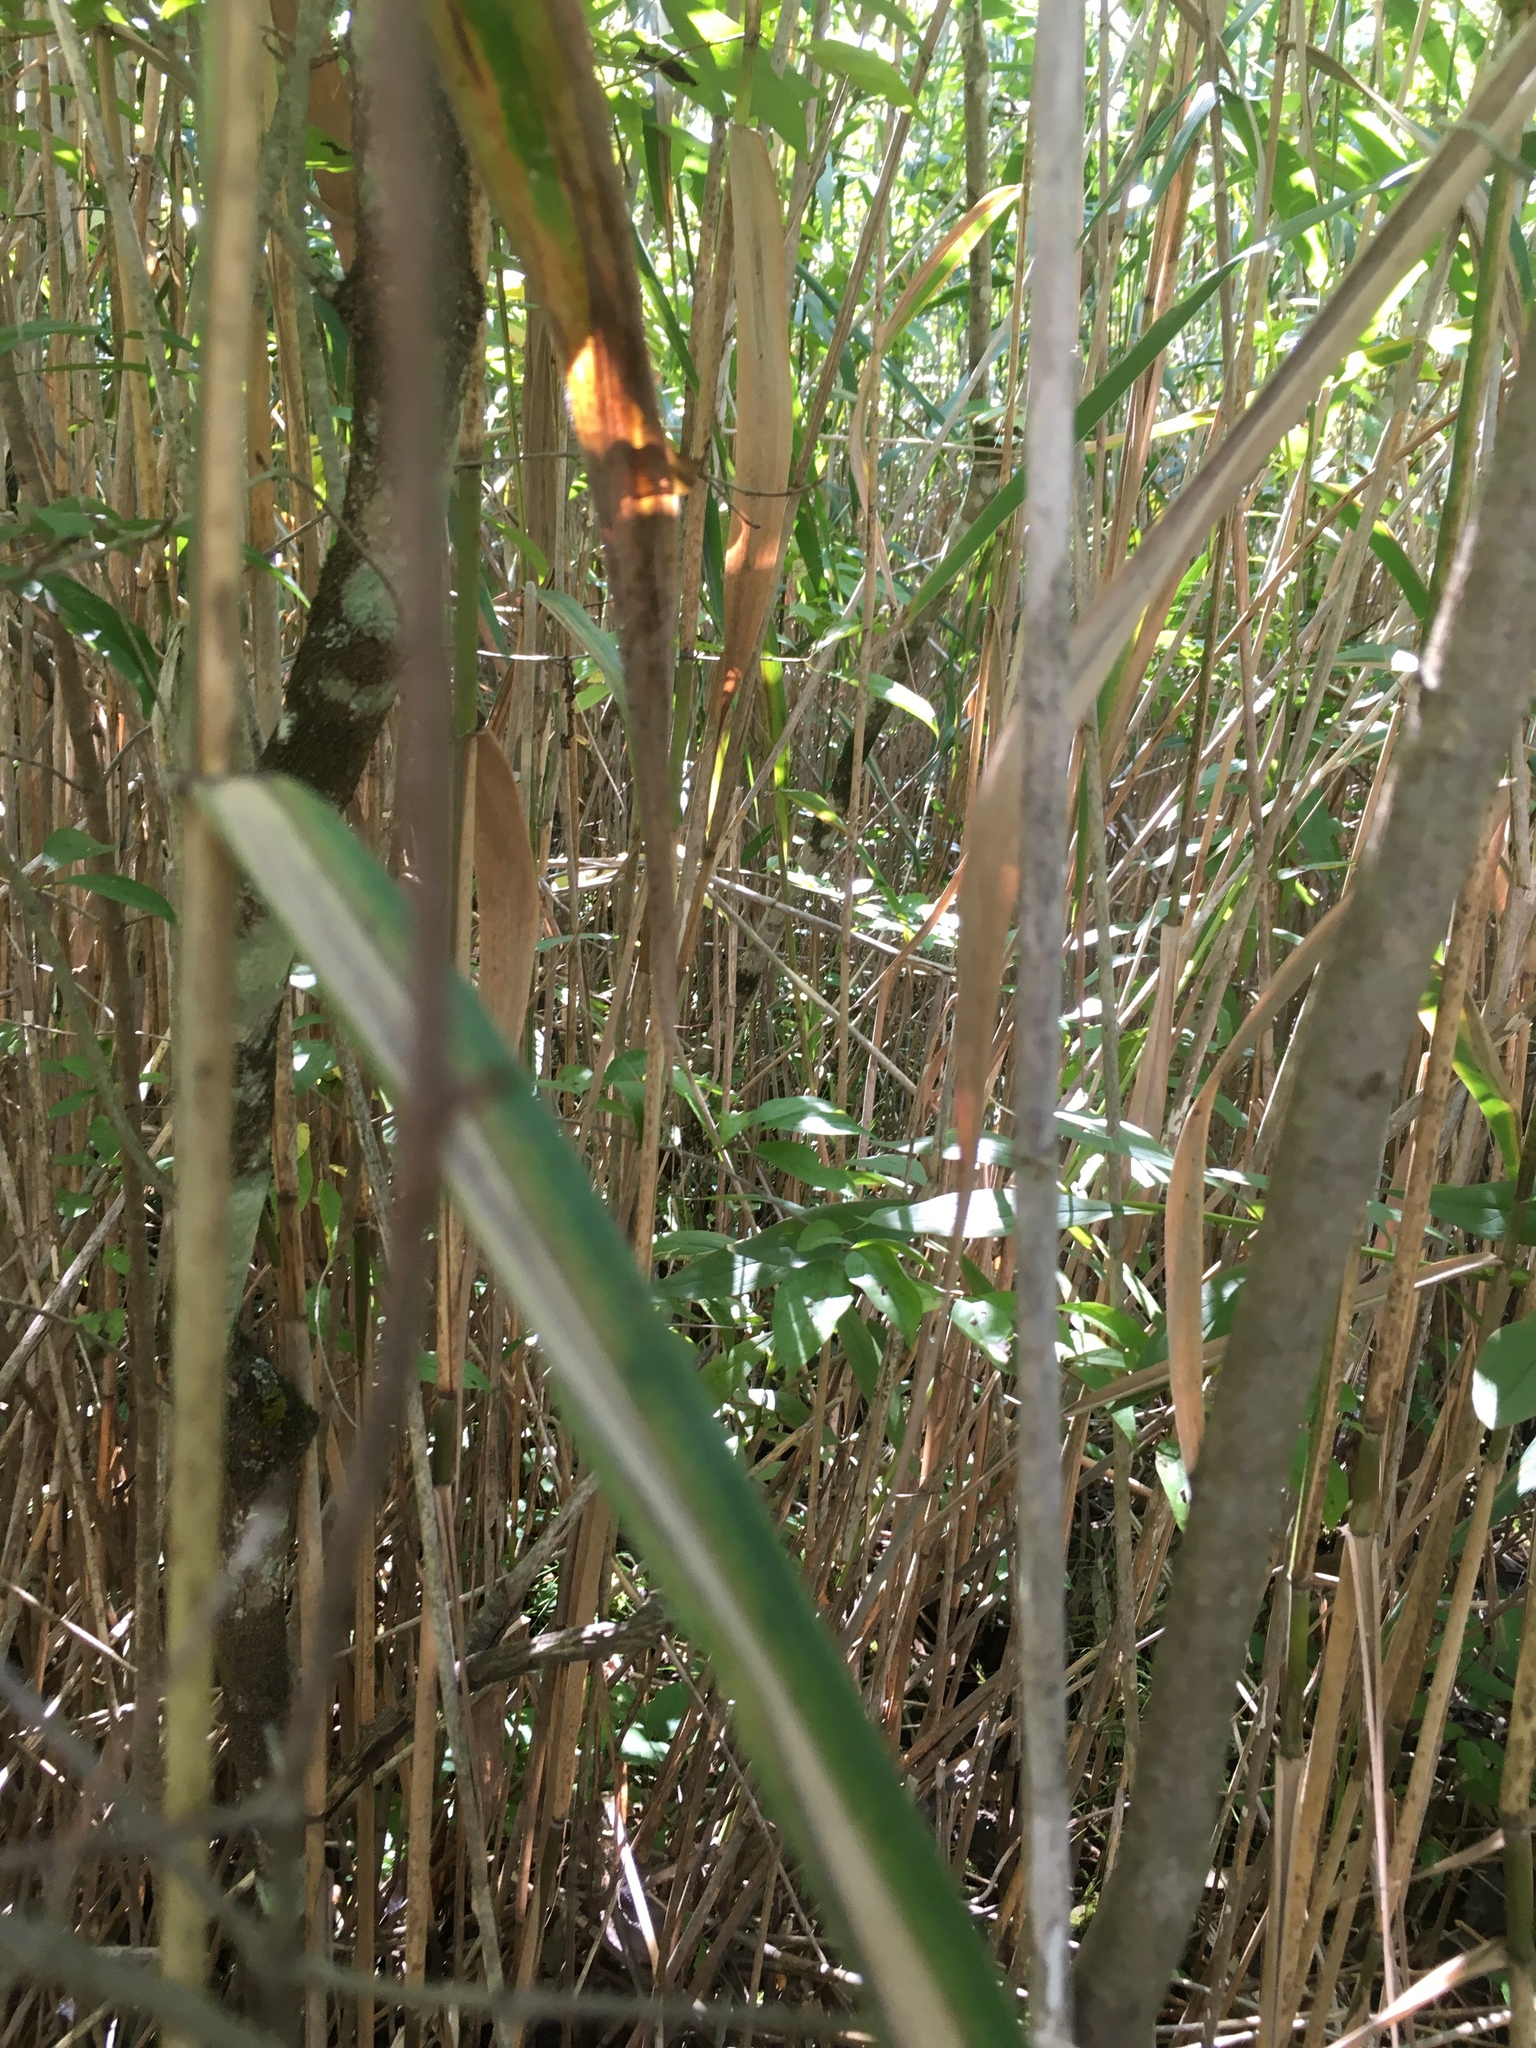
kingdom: Plantae
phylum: Tracheophyta
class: Liliopsida
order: Poales
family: Poaceae
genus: Phragmites
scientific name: Phragmites australis
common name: Common reed
